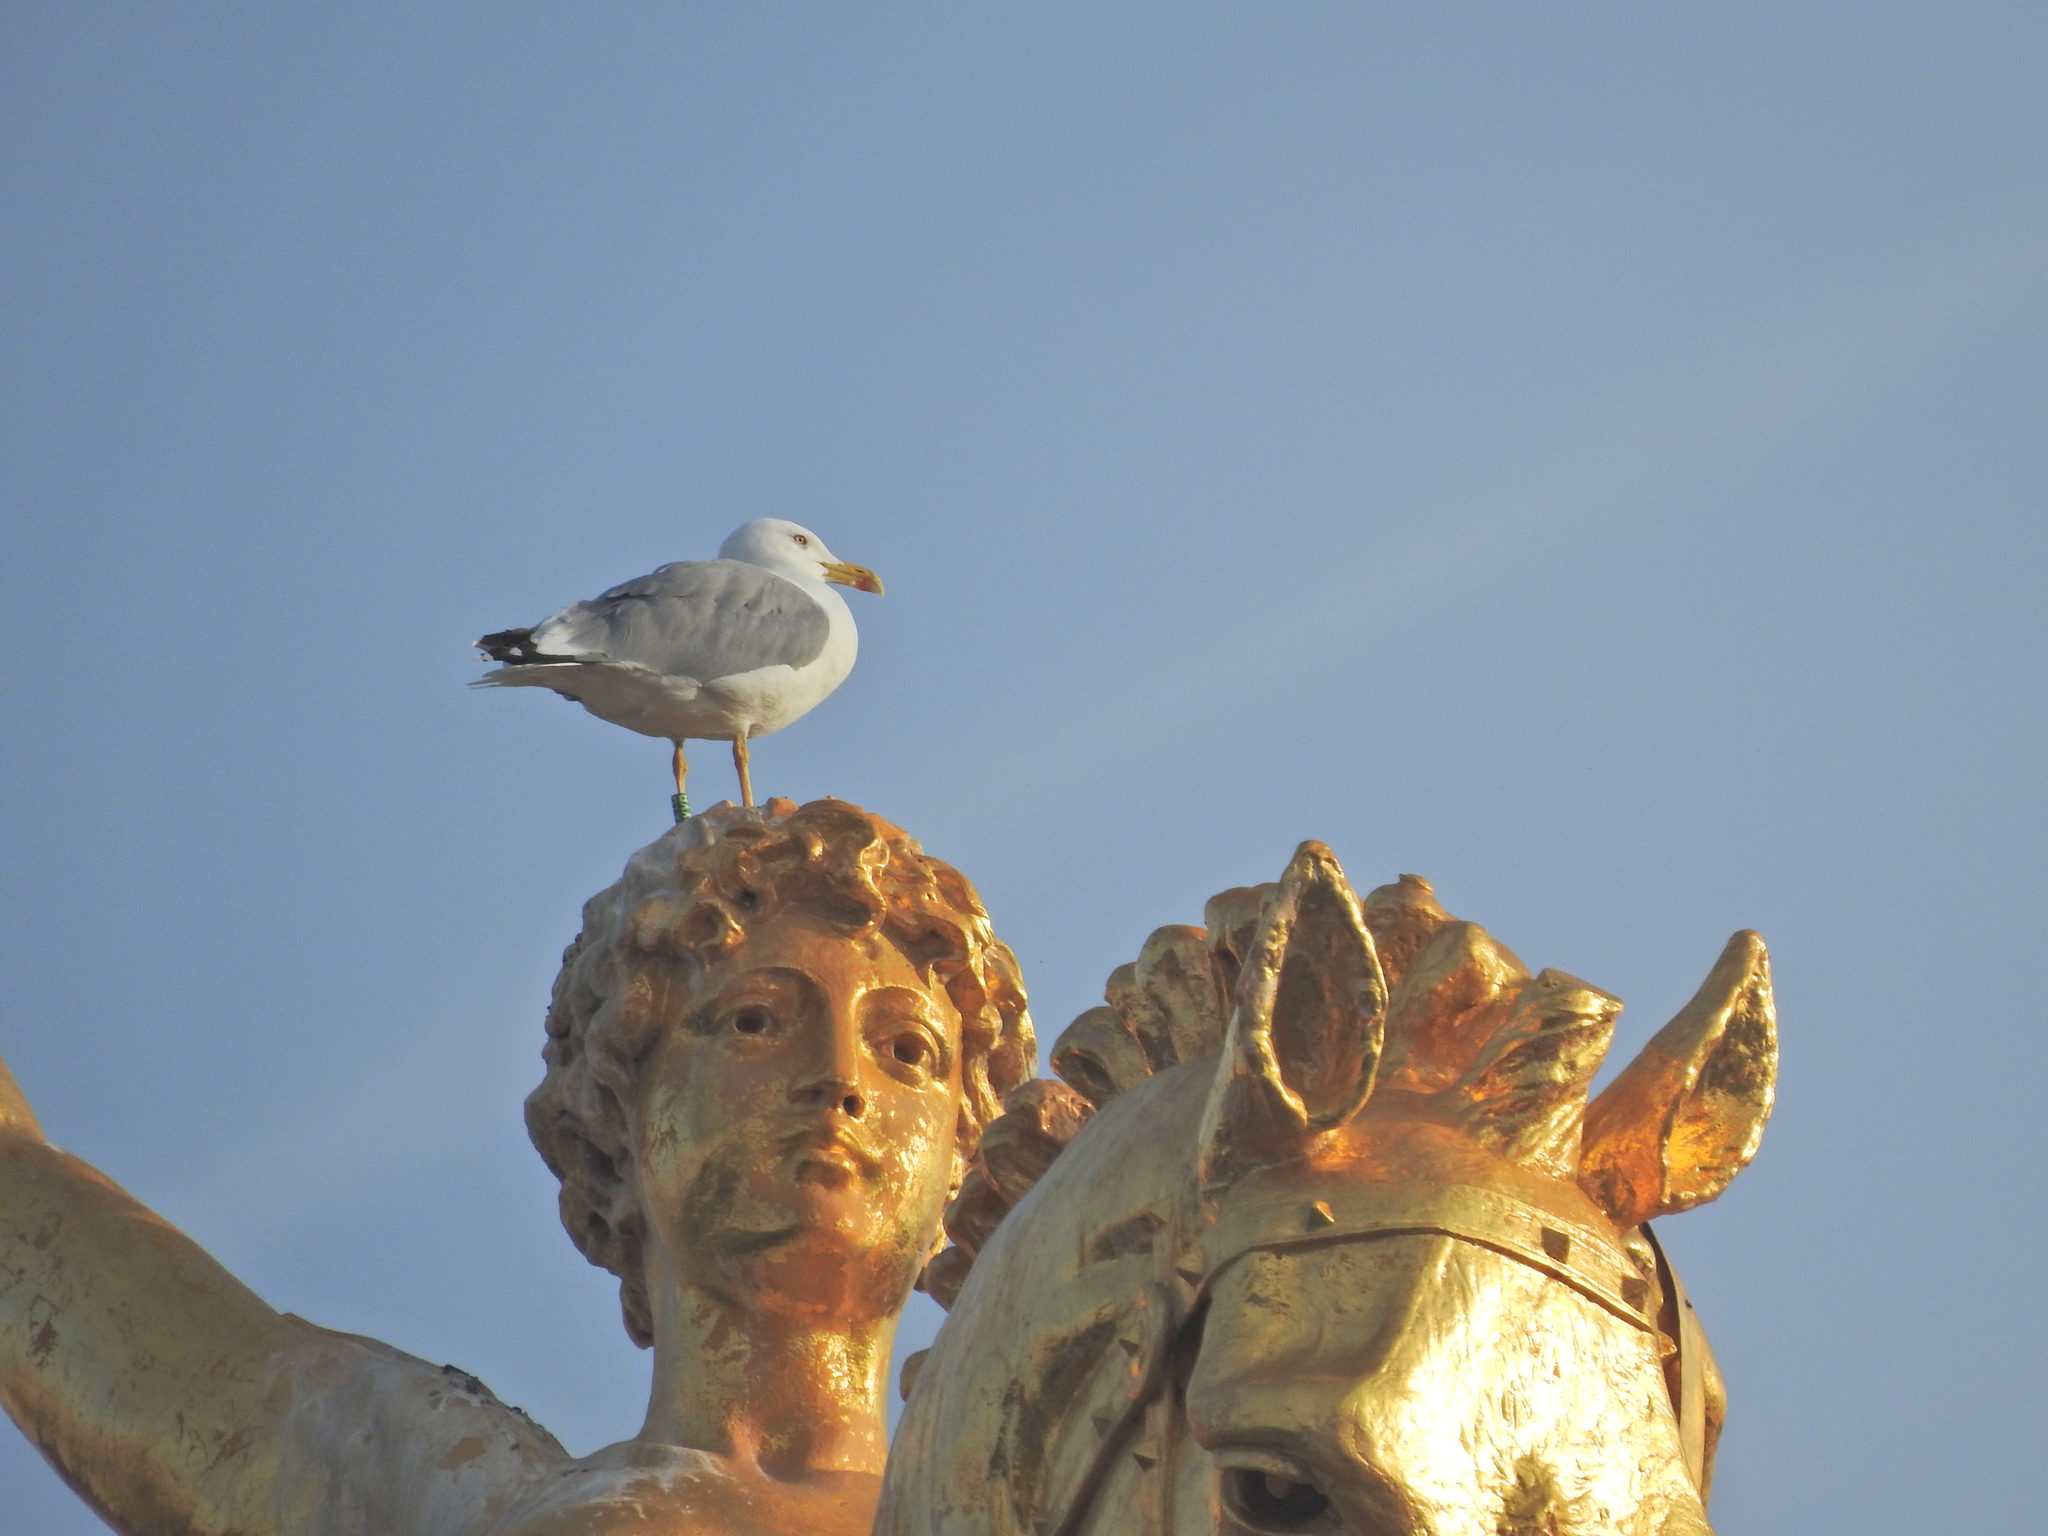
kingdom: Animalia
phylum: Chordata
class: Aves
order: Charadriiformes
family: Laridae
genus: Larus
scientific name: Larus michahellis
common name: Yellow-legged gull
